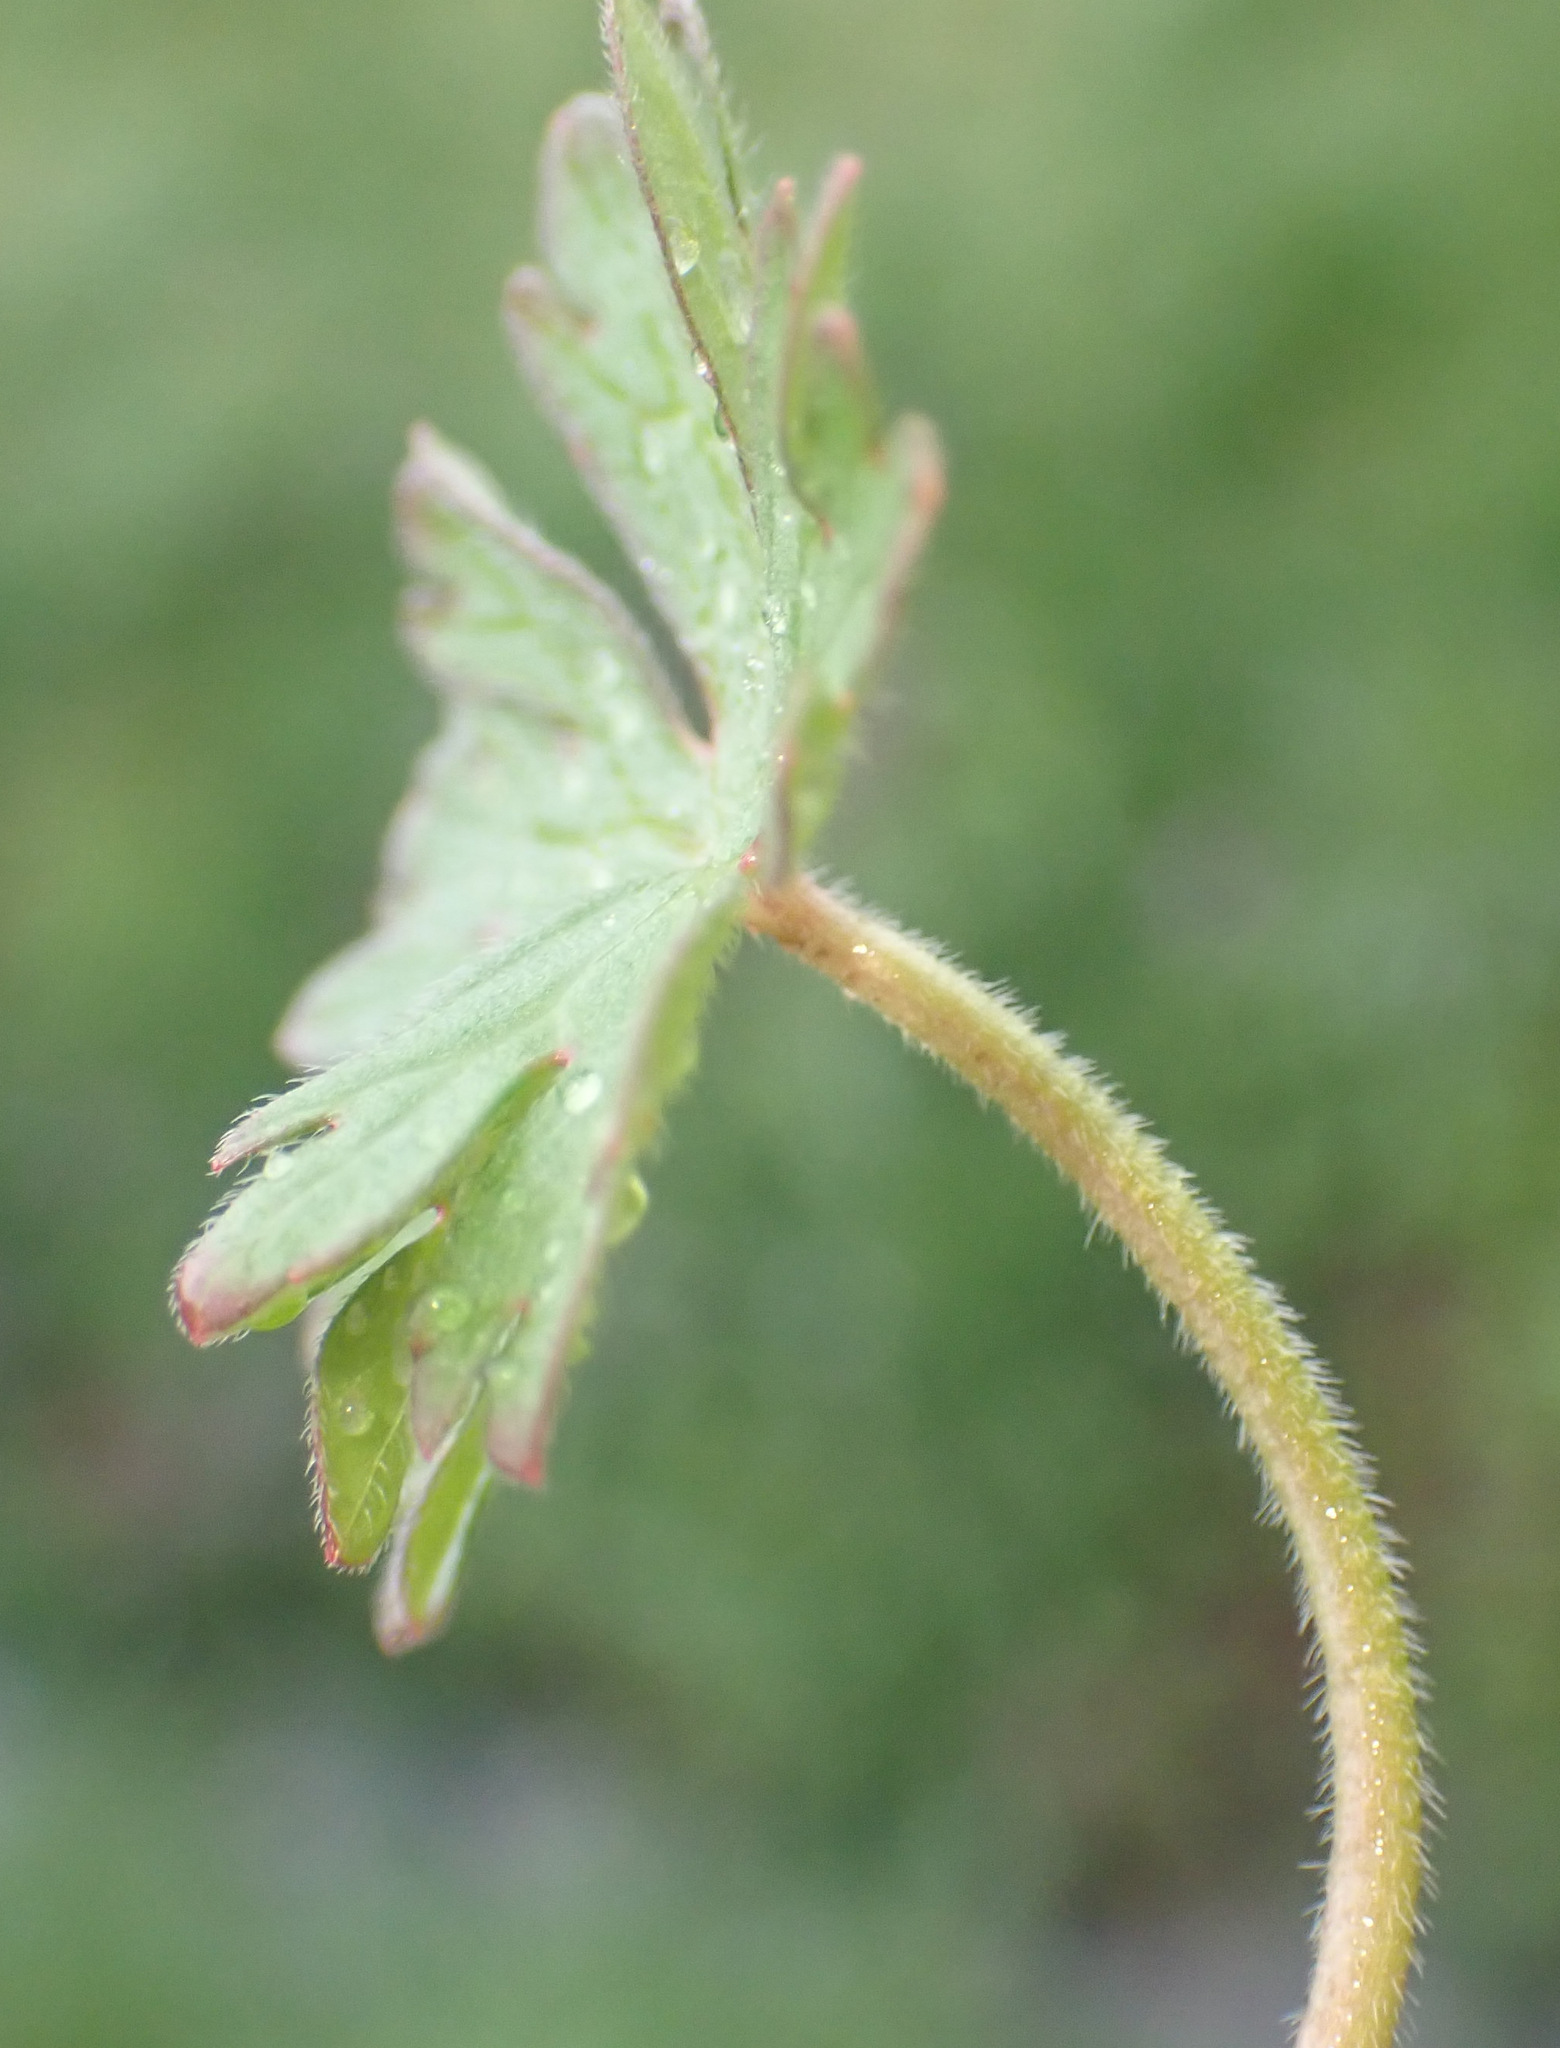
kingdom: Plantae
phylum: Tracheophyta
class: Magnoliopsida
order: Geraniales
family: Geraniaceae
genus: Geranium
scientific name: Geranium dissectum
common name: Cut-leaved crane's-bill
